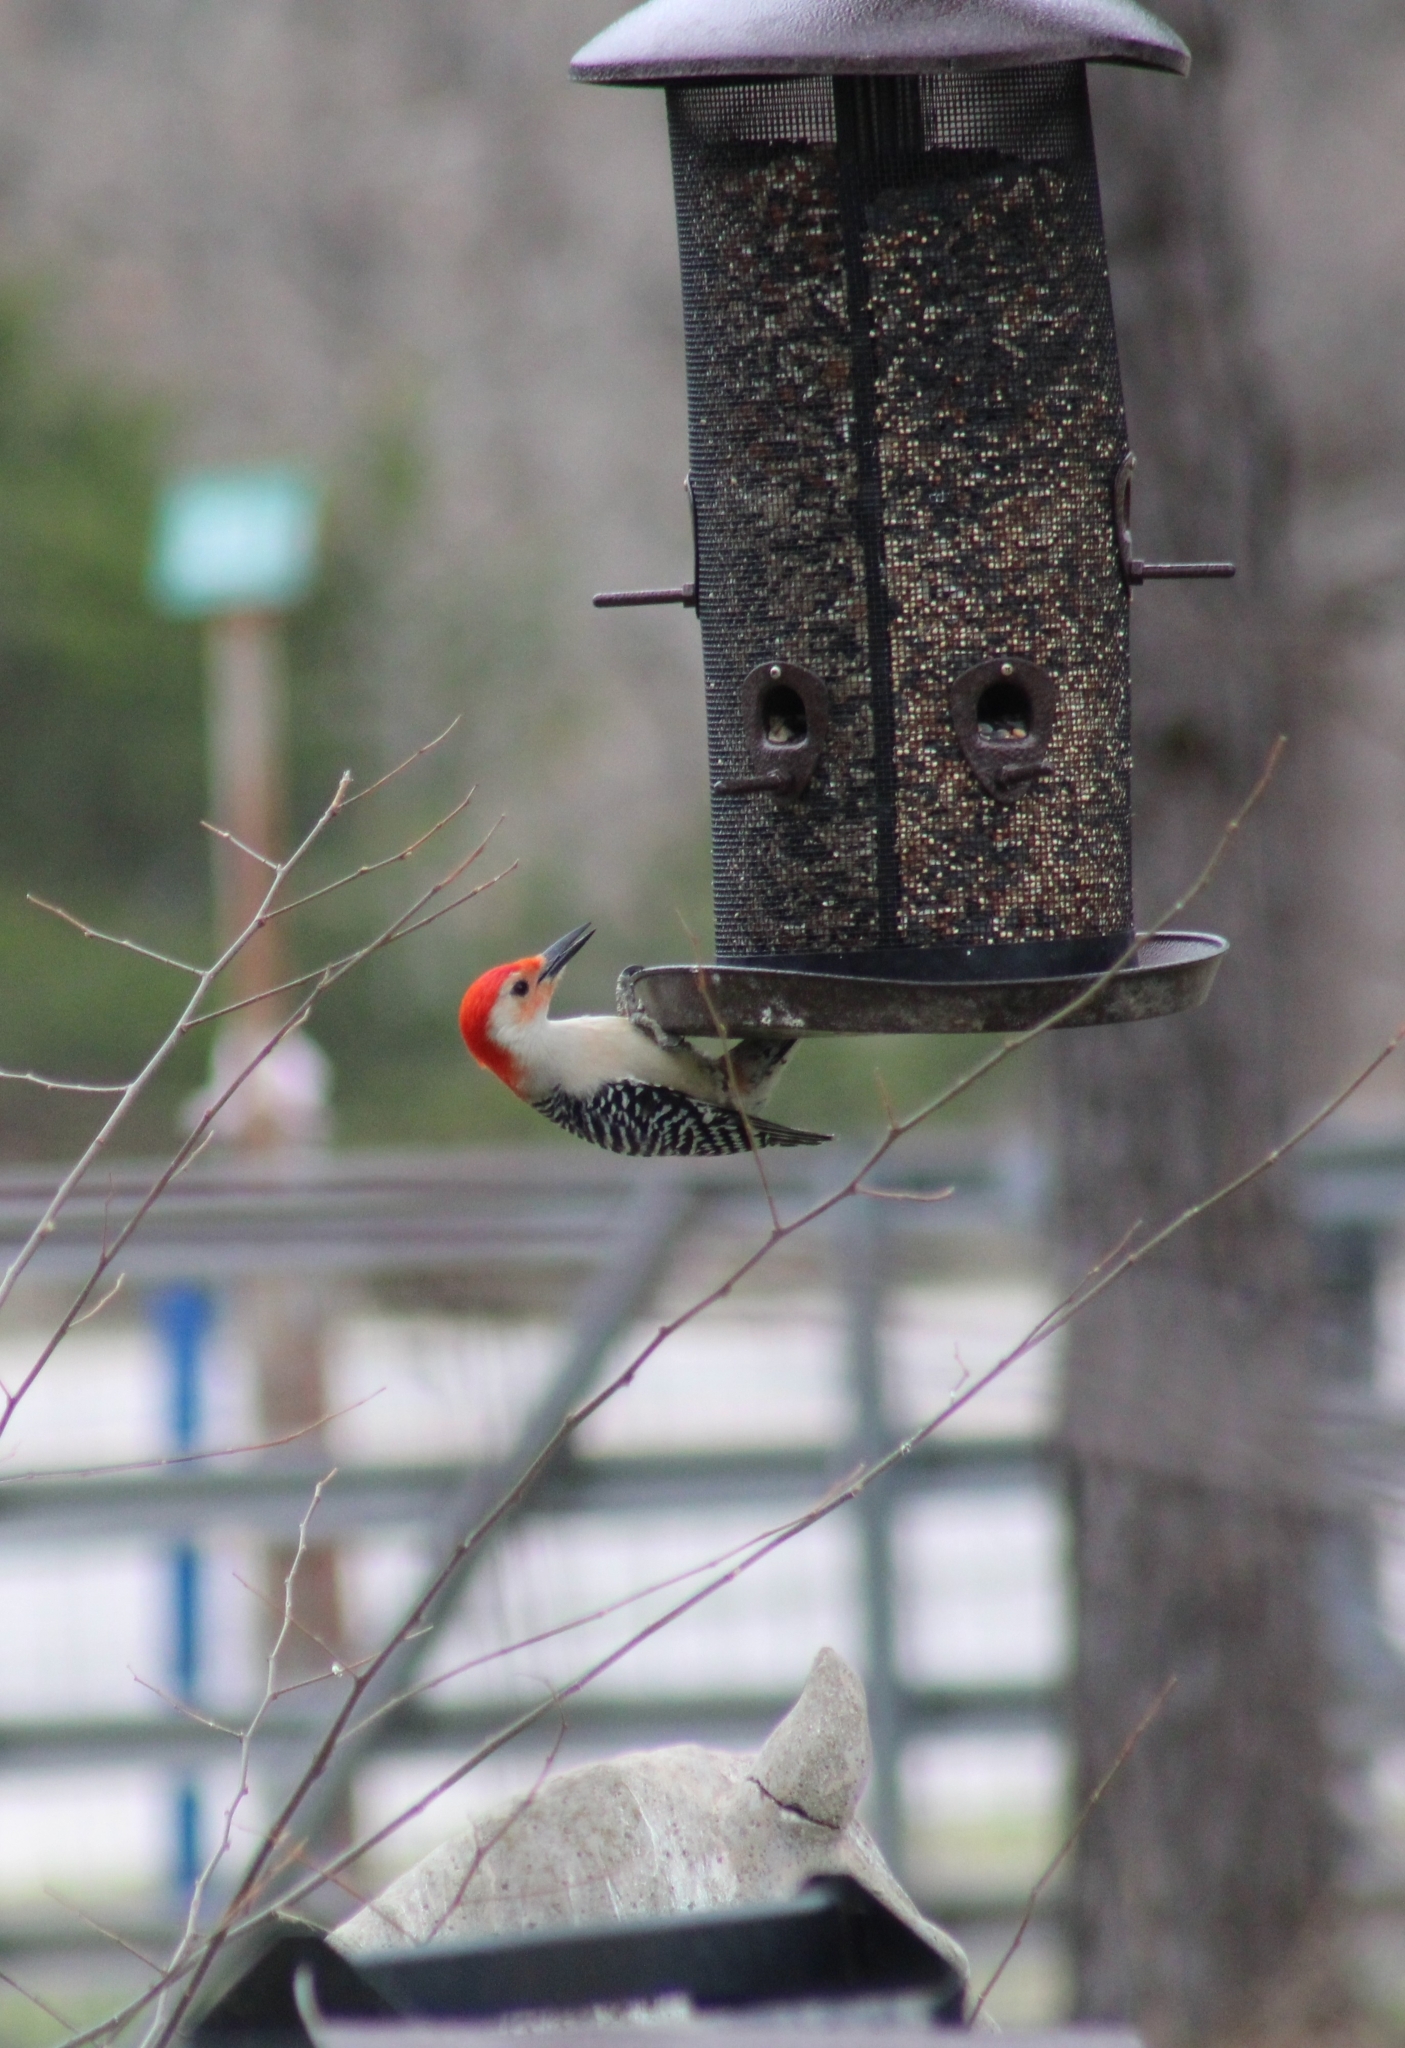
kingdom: Animalia
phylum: Chordata
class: Aves
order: Piciformes
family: Picidae
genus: Melanerpes
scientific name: Melanerpes carolinus
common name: Red-bellied woodpecker
